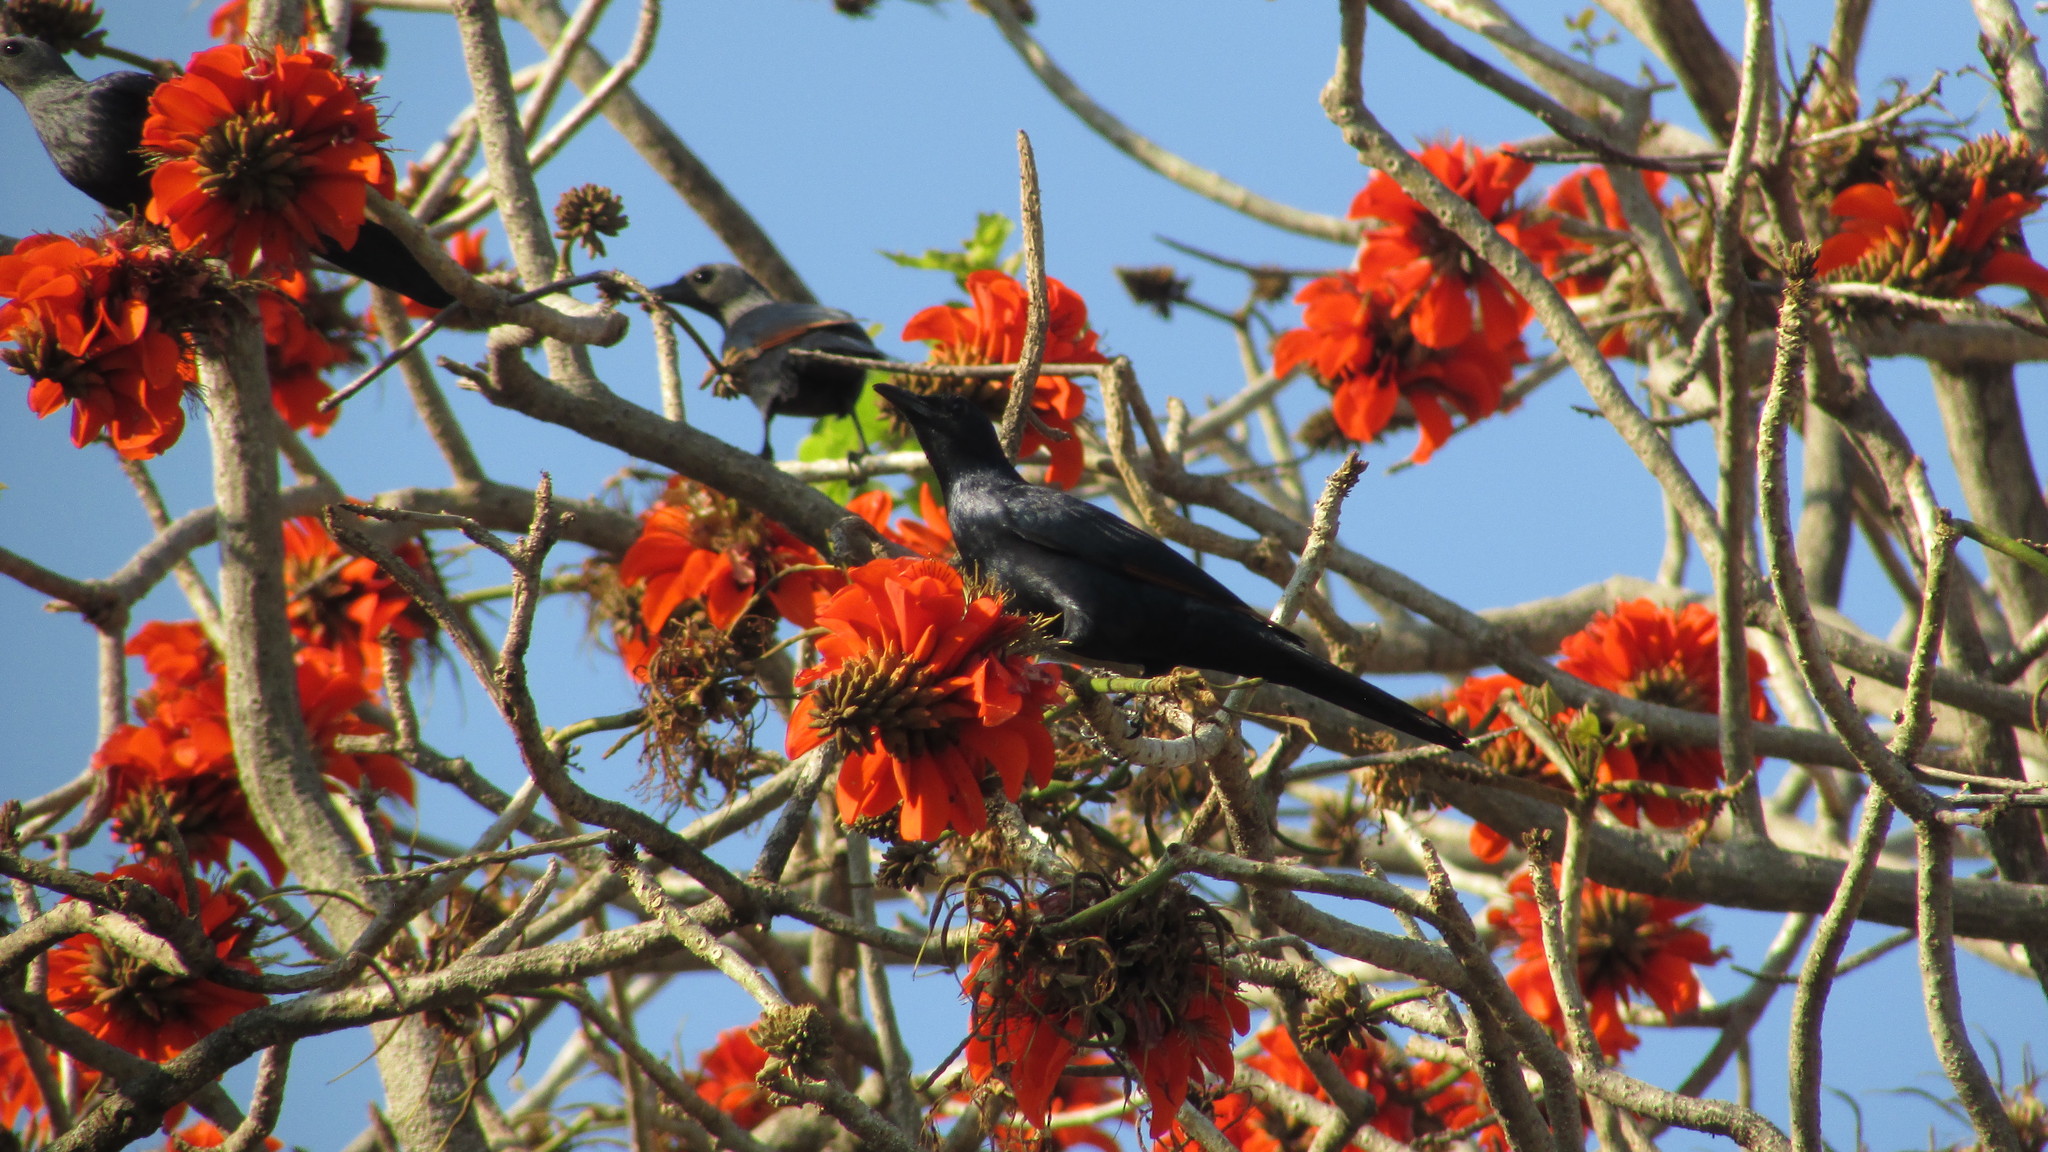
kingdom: Animalia
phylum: Chordata
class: Aves
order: Passeriformes
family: Sturnidae
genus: Onychognathus
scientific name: Onychognathus morio
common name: Red-winged starling
